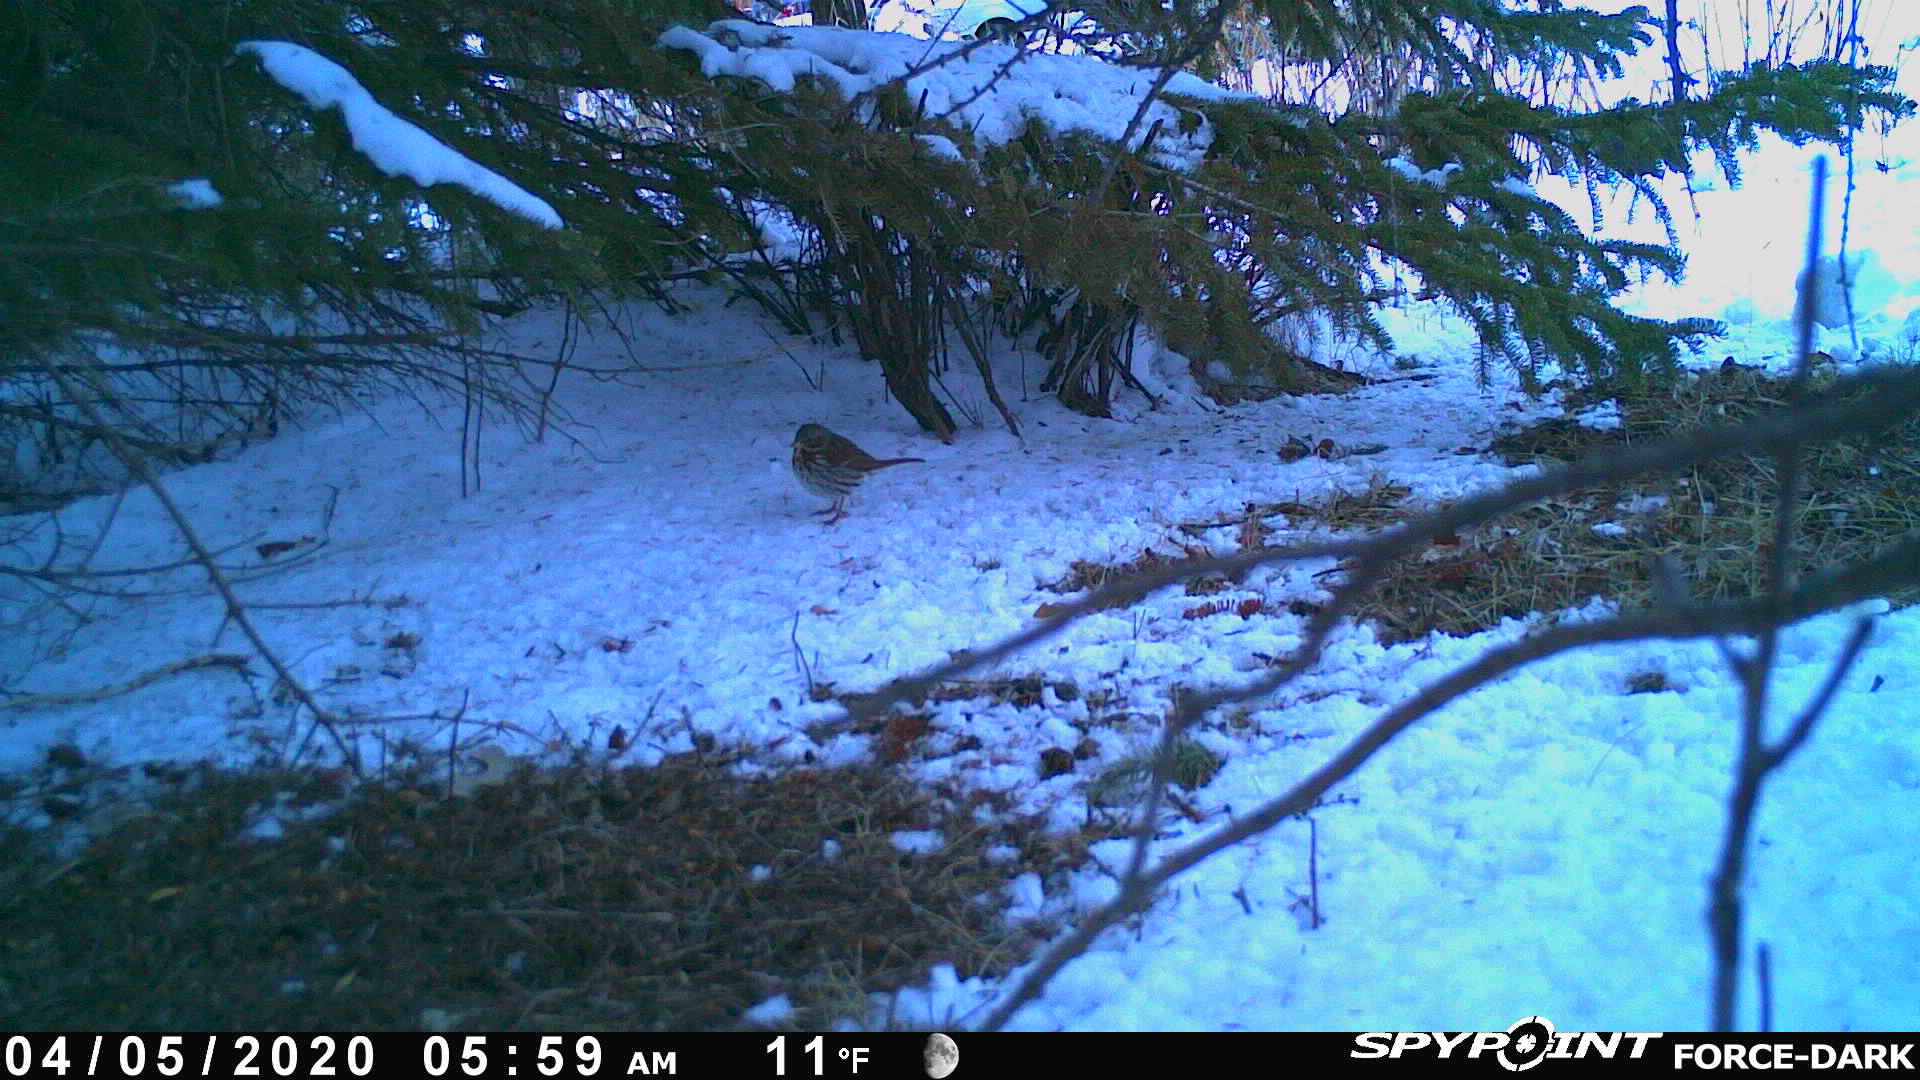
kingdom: Animalia
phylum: Chordata
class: Aves
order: Passeriformes
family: Passerellidae
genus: Passerella
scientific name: Passerella iliaca
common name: Fox sparrow
